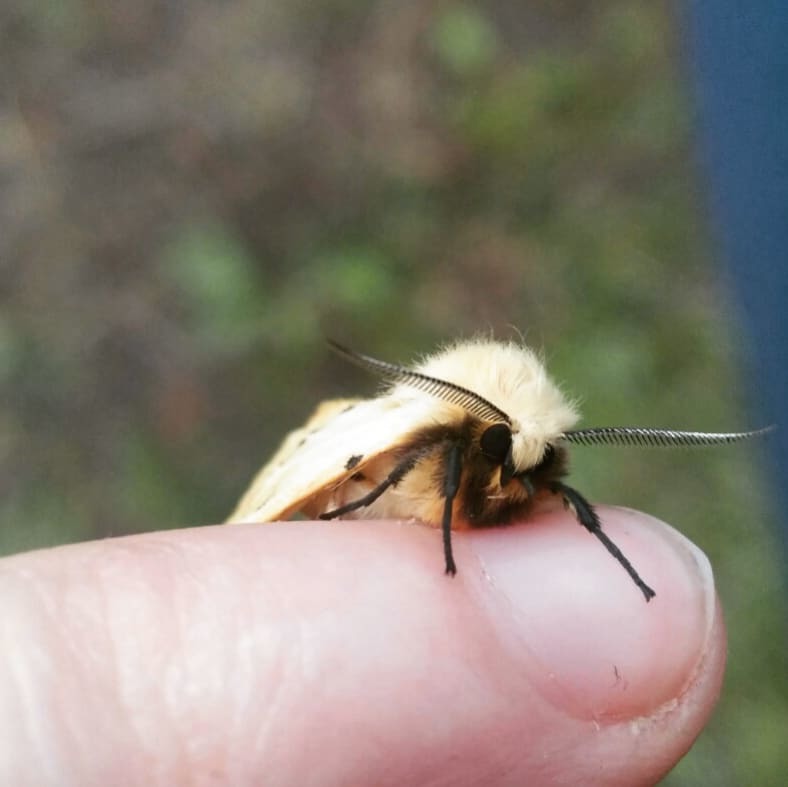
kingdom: Animalia
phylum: Arthropoda
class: Insecta
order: Lepidoptera
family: Erebidae
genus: Spilarctia
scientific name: Spilarctia lutea
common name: Buff ermine
